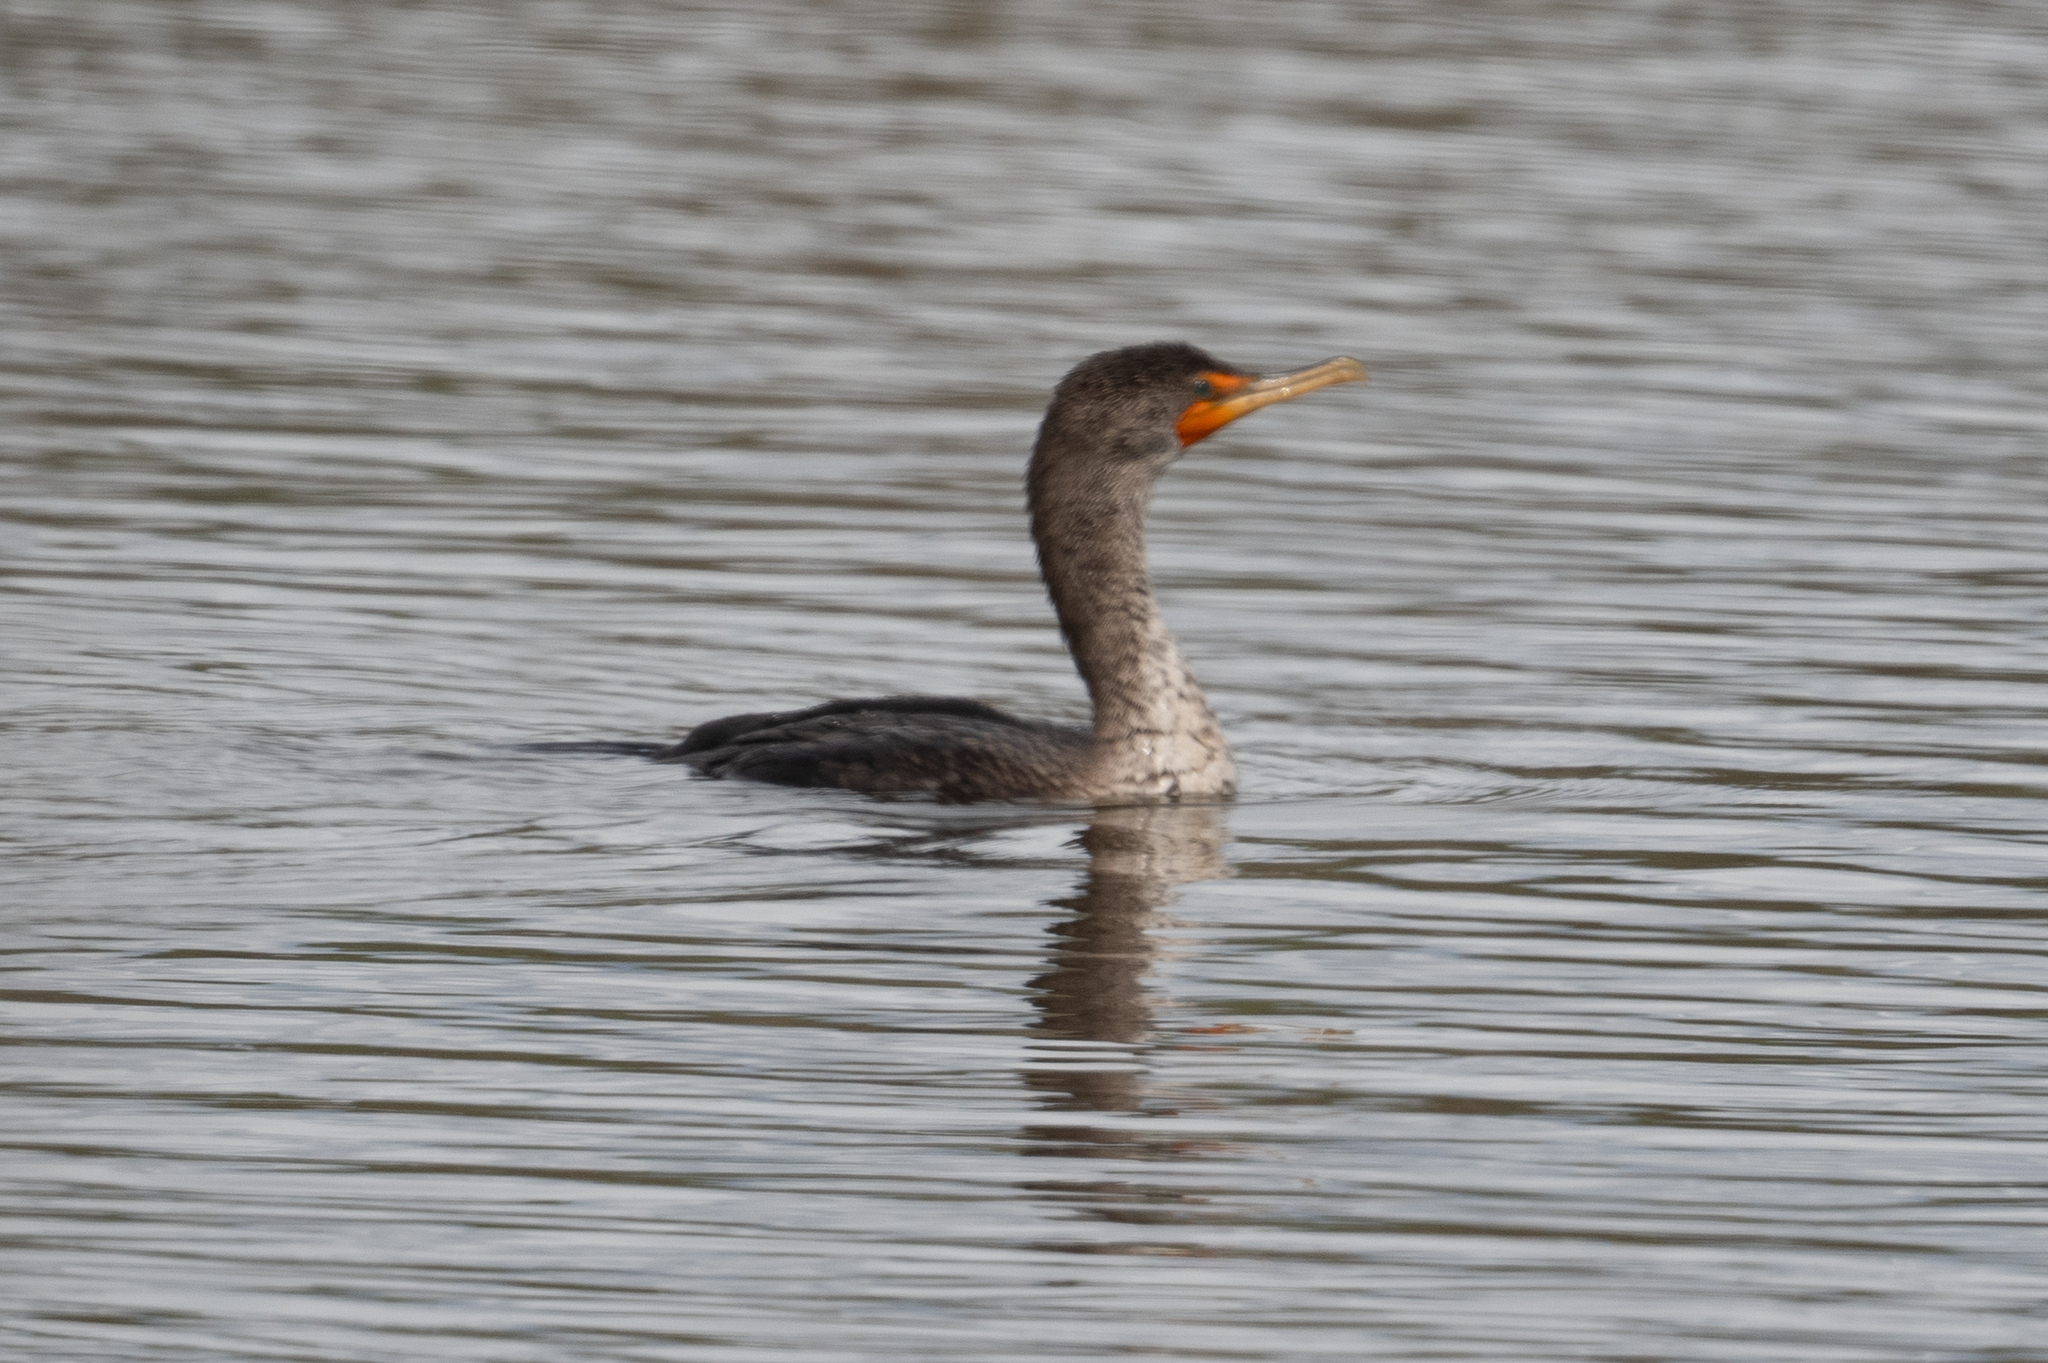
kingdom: Animalia
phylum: Chordata
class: Aves
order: Suliformes
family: Phalacrocoracidae
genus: Phalacrocorax
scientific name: Phalacrocorax auritus
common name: Double-crested cormorant
